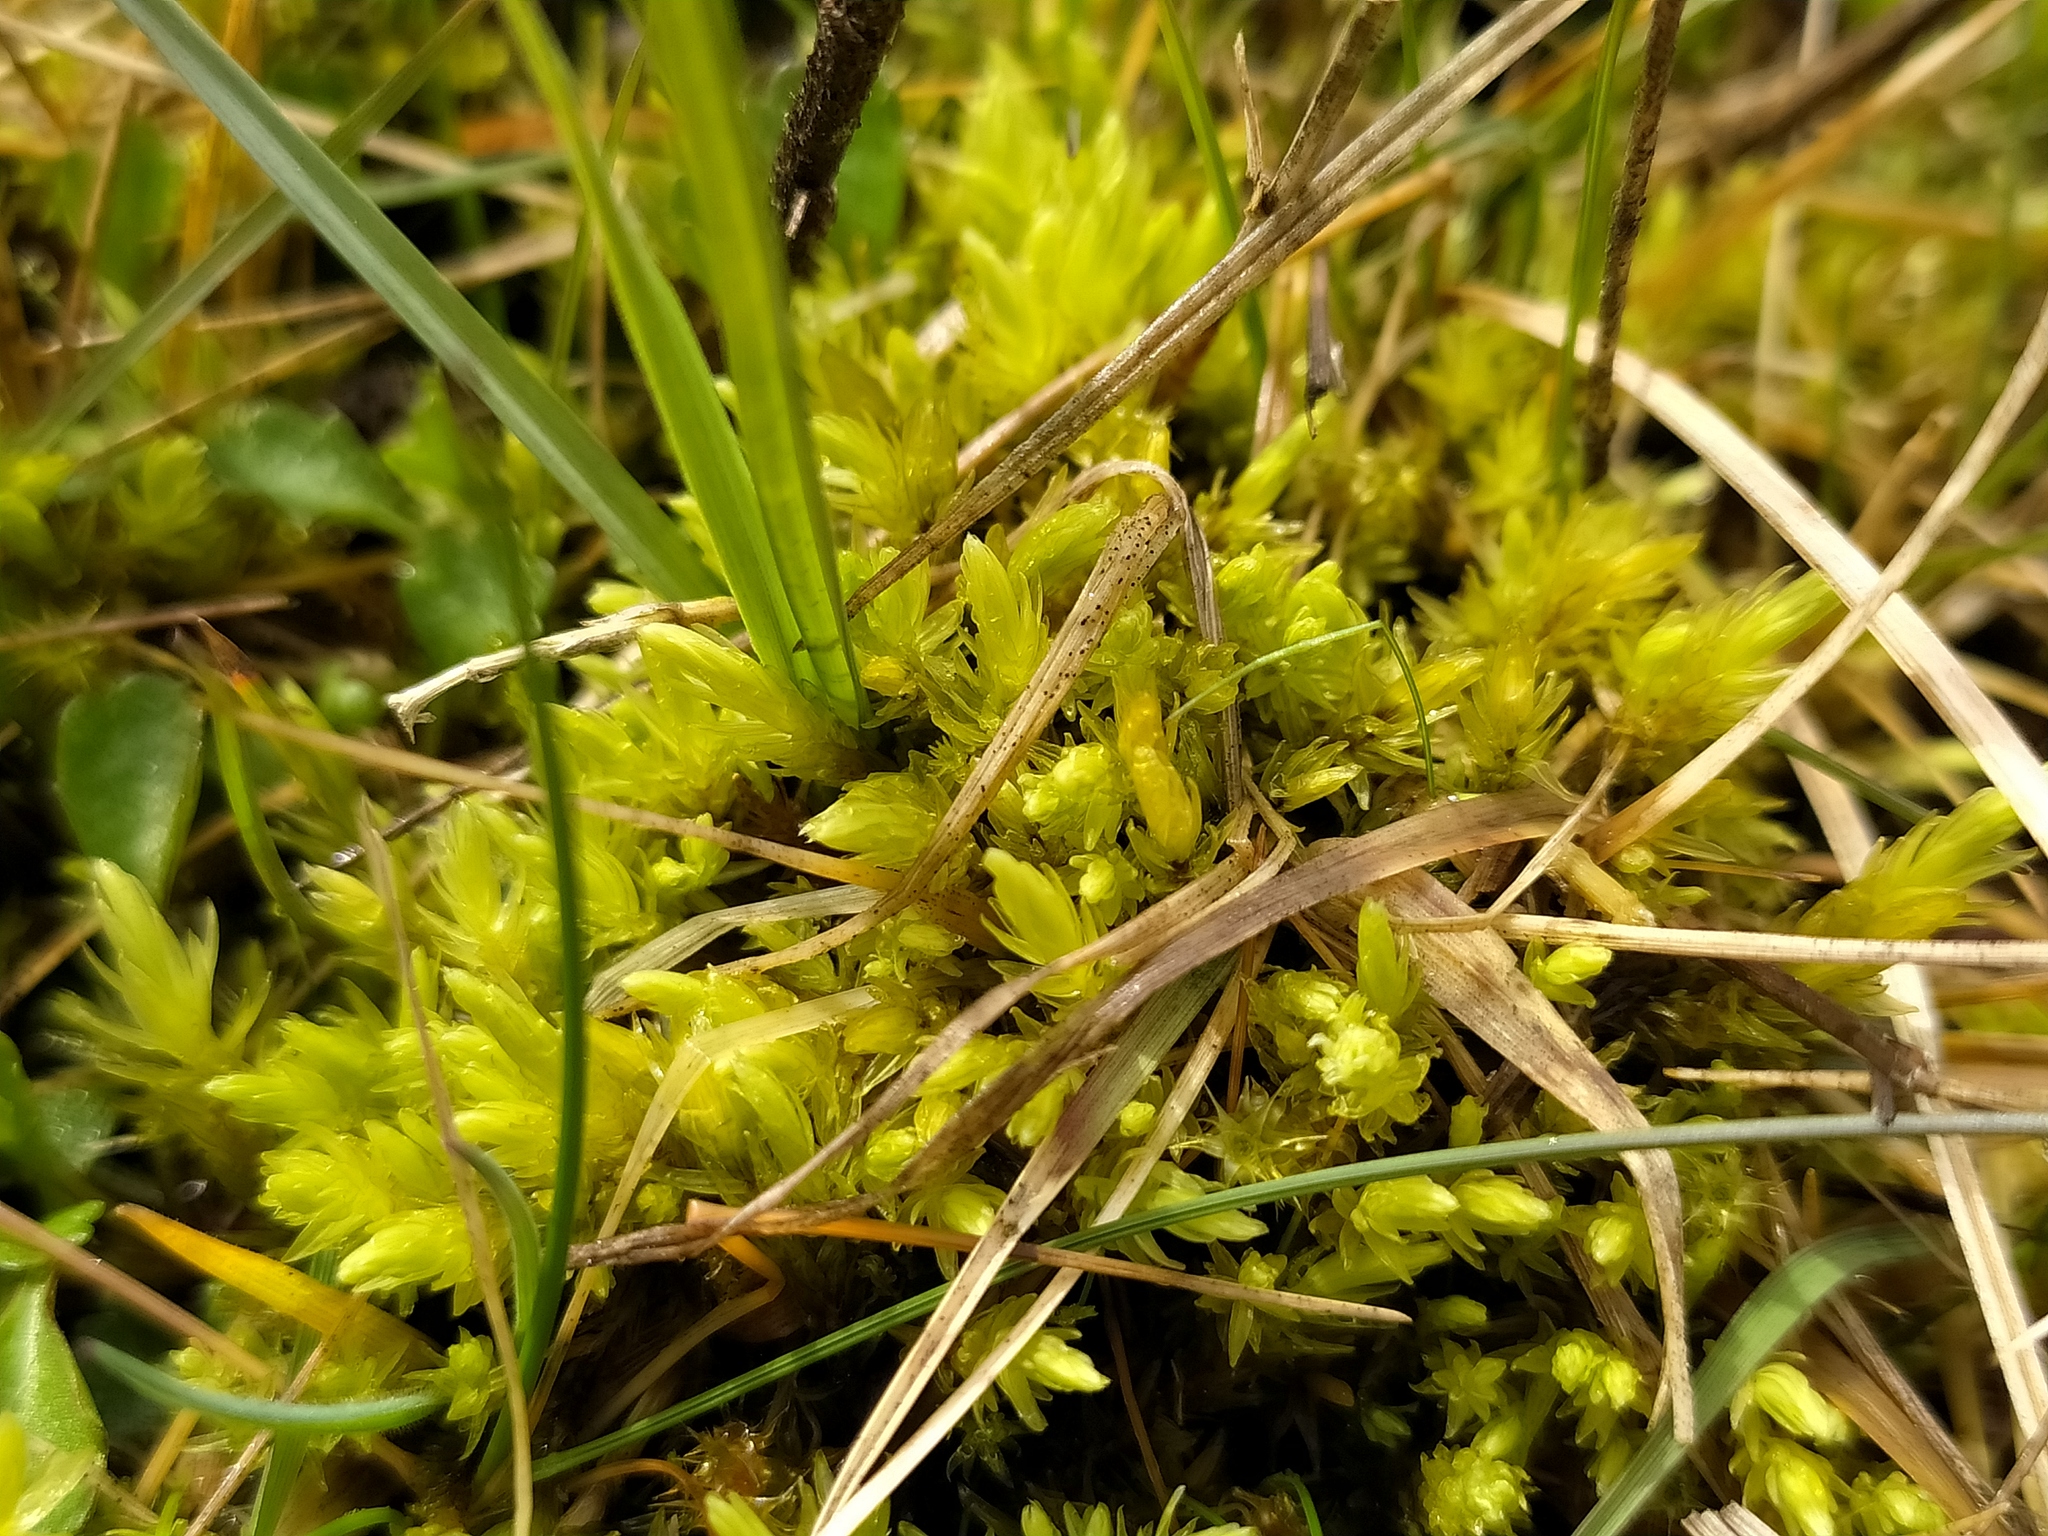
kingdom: Plantae
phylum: Bryophyta
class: Bryopsida
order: Aulacomniales
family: Aulacomniaceae
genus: Aulacomnium
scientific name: Aulacomnium palustre
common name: Bog groove-moss
